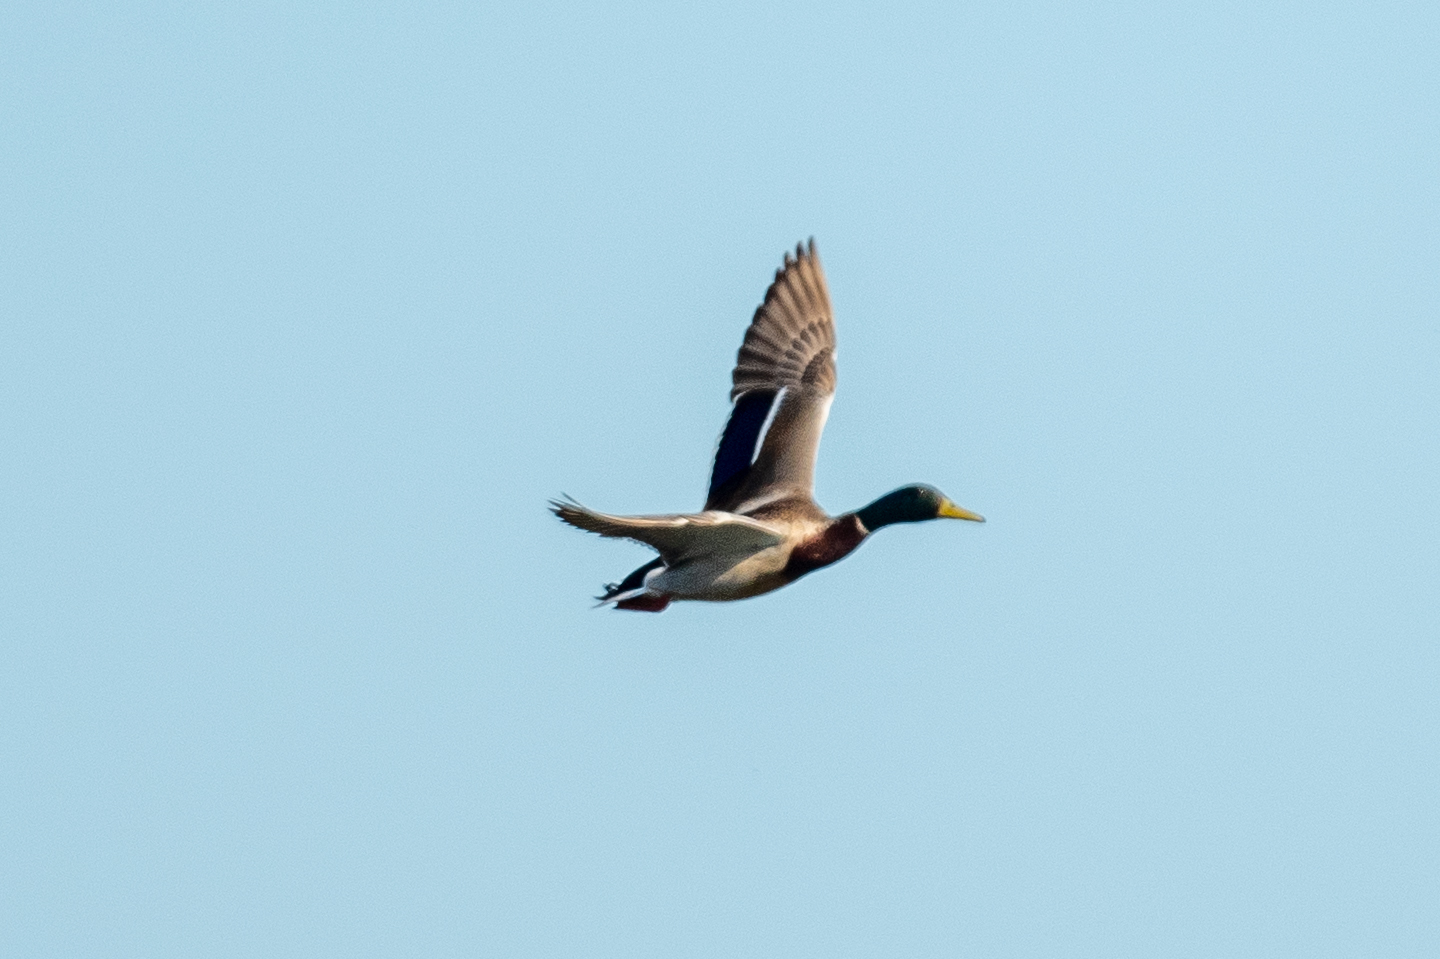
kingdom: Animalia
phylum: Chordata
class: Aves
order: Anseriformes
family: Anatidae
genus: Anas
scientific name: Anas platyrhynchos
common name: Mallard
